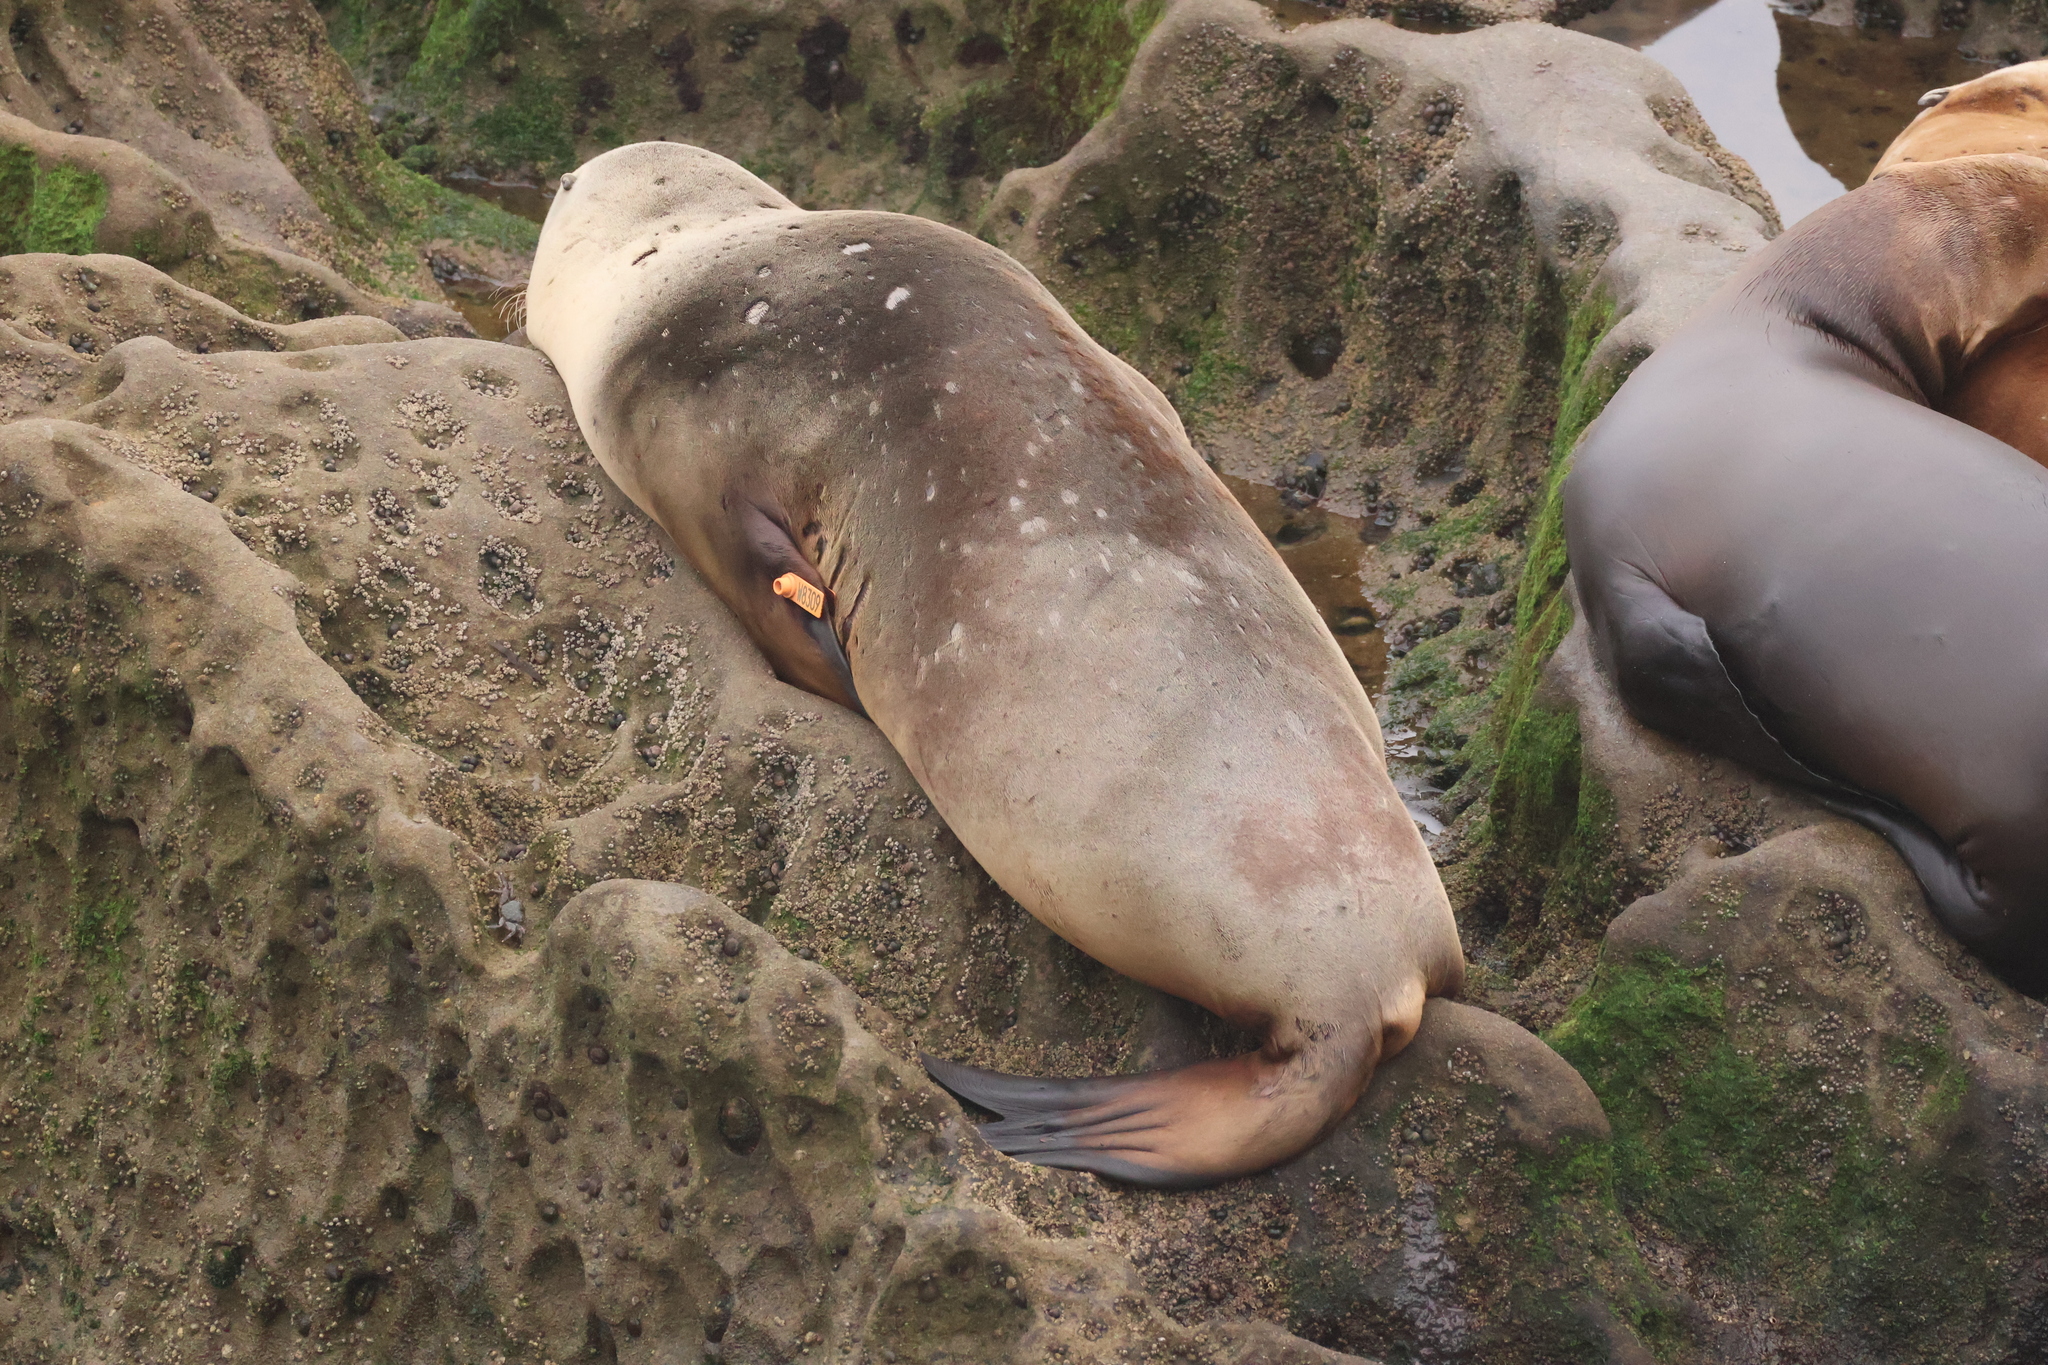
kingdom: Animalia
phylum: Chordata
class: Mammalia
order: Carnivora
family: Otariidae
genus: Zalophus
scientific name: Zalophus californianus
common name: California sea lion
